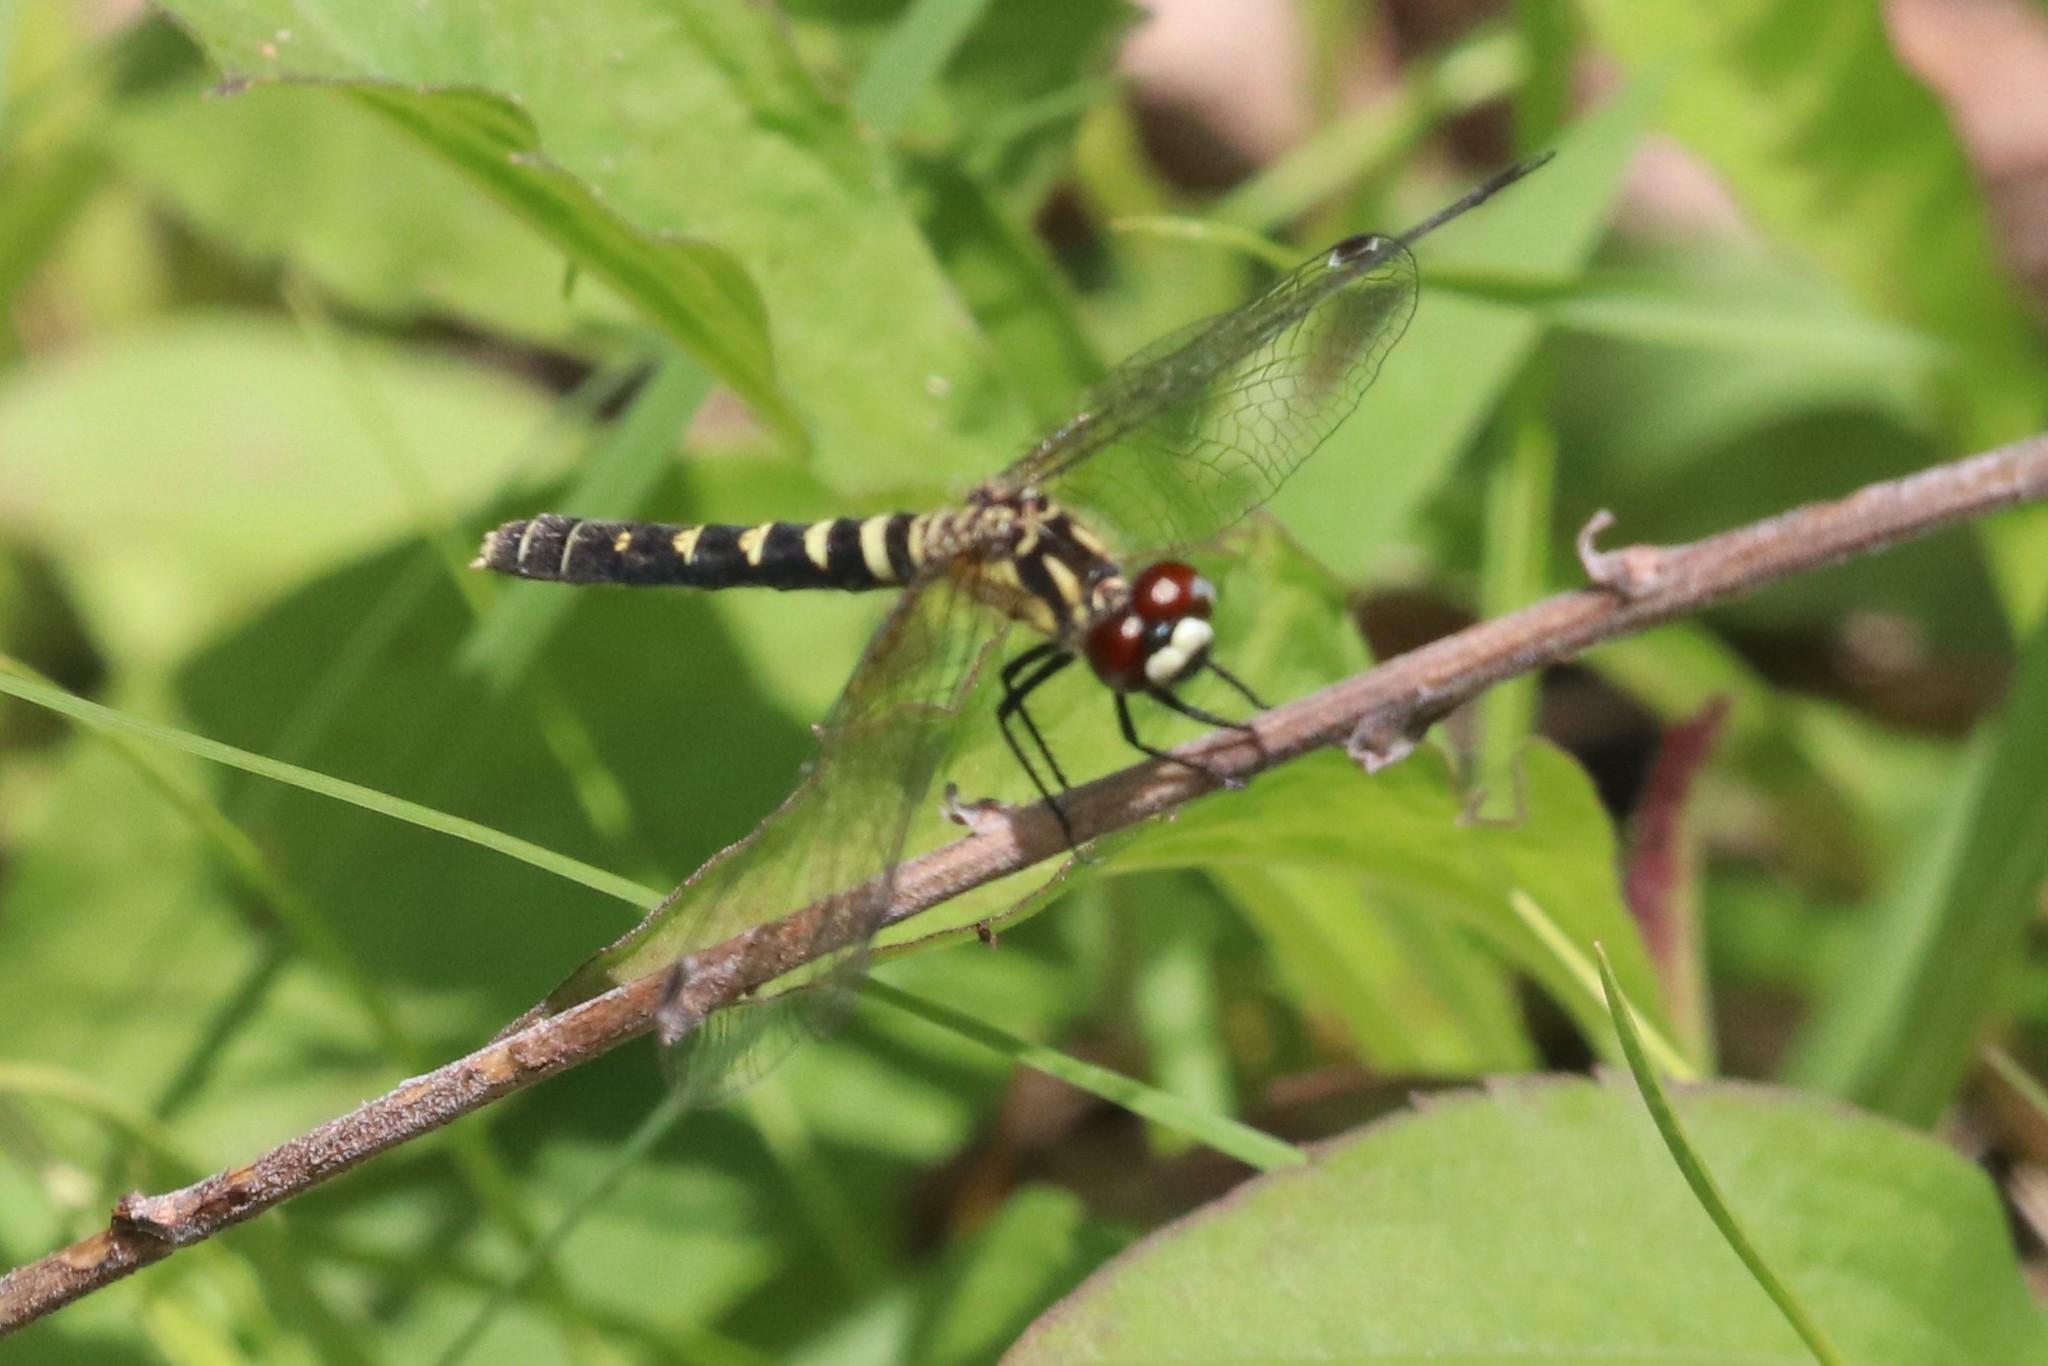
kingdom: Animalia
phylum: Arthropoda
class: Insecta
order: Odonata
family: Libellulidae
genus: Nannothemis
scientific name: Nannothemis bella
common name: Elfin skimmer
